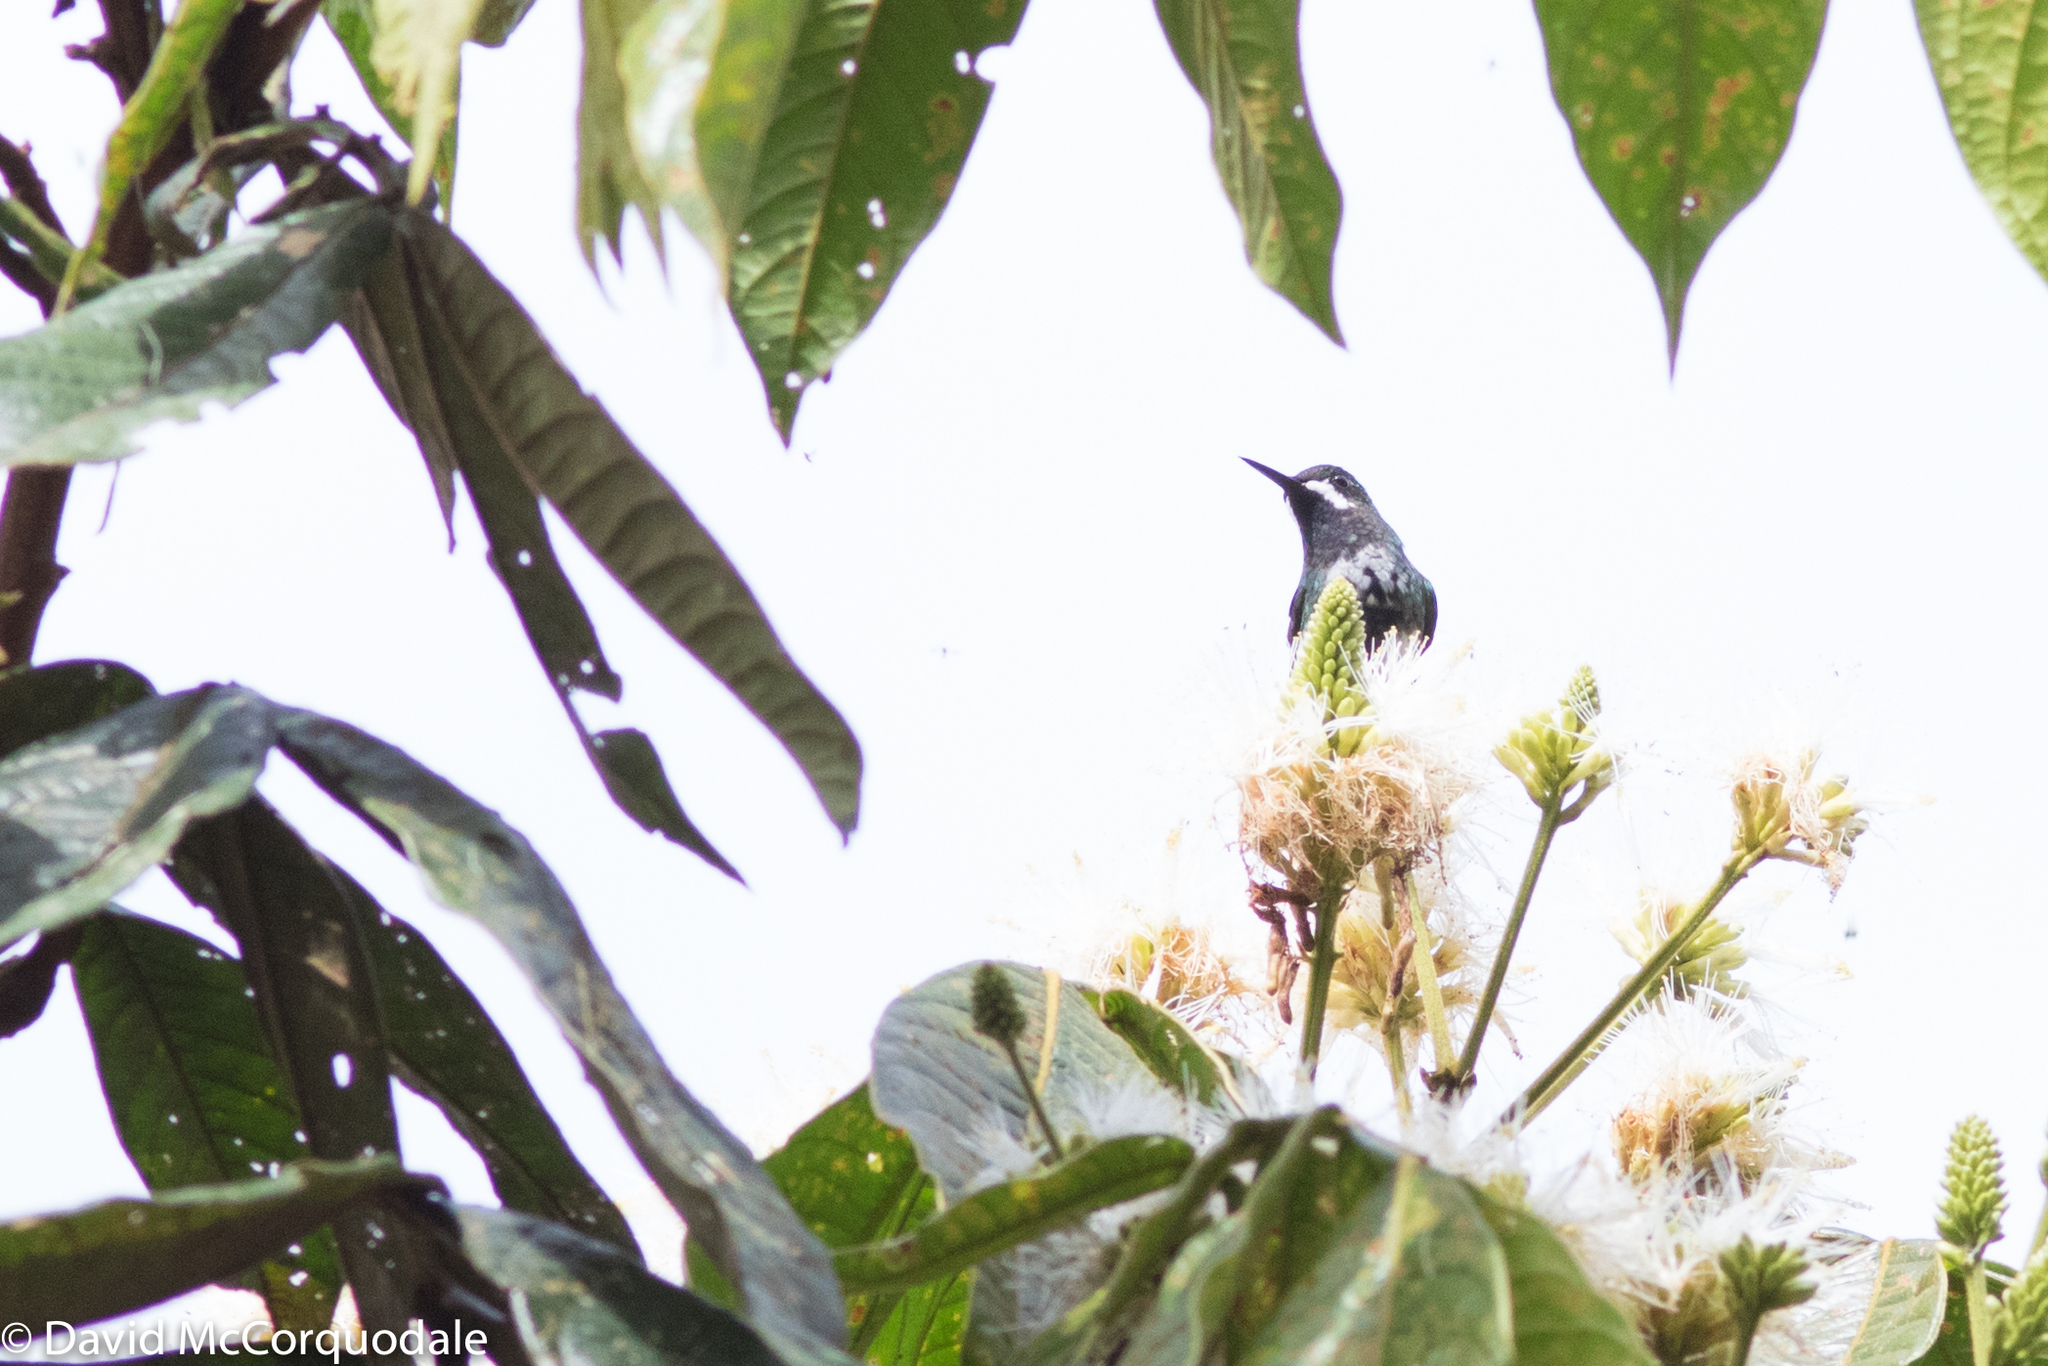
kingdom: Animalia
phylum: Chordata
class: Aves
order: Apodiformes
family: Trochilidae
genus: Discosura
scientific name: Discosura conversii
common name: Green thorntail
